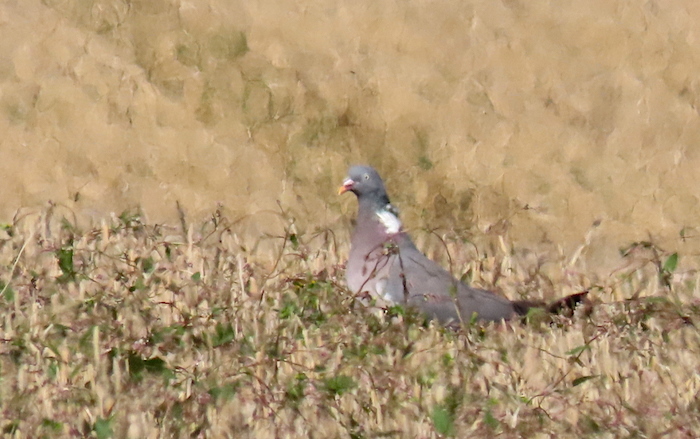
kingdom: Animalia
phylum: Chordata
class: Aves
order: Columbiformes
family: Columbidae
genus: Columba
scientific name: Columba palumbus
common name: Common wood pigeon
